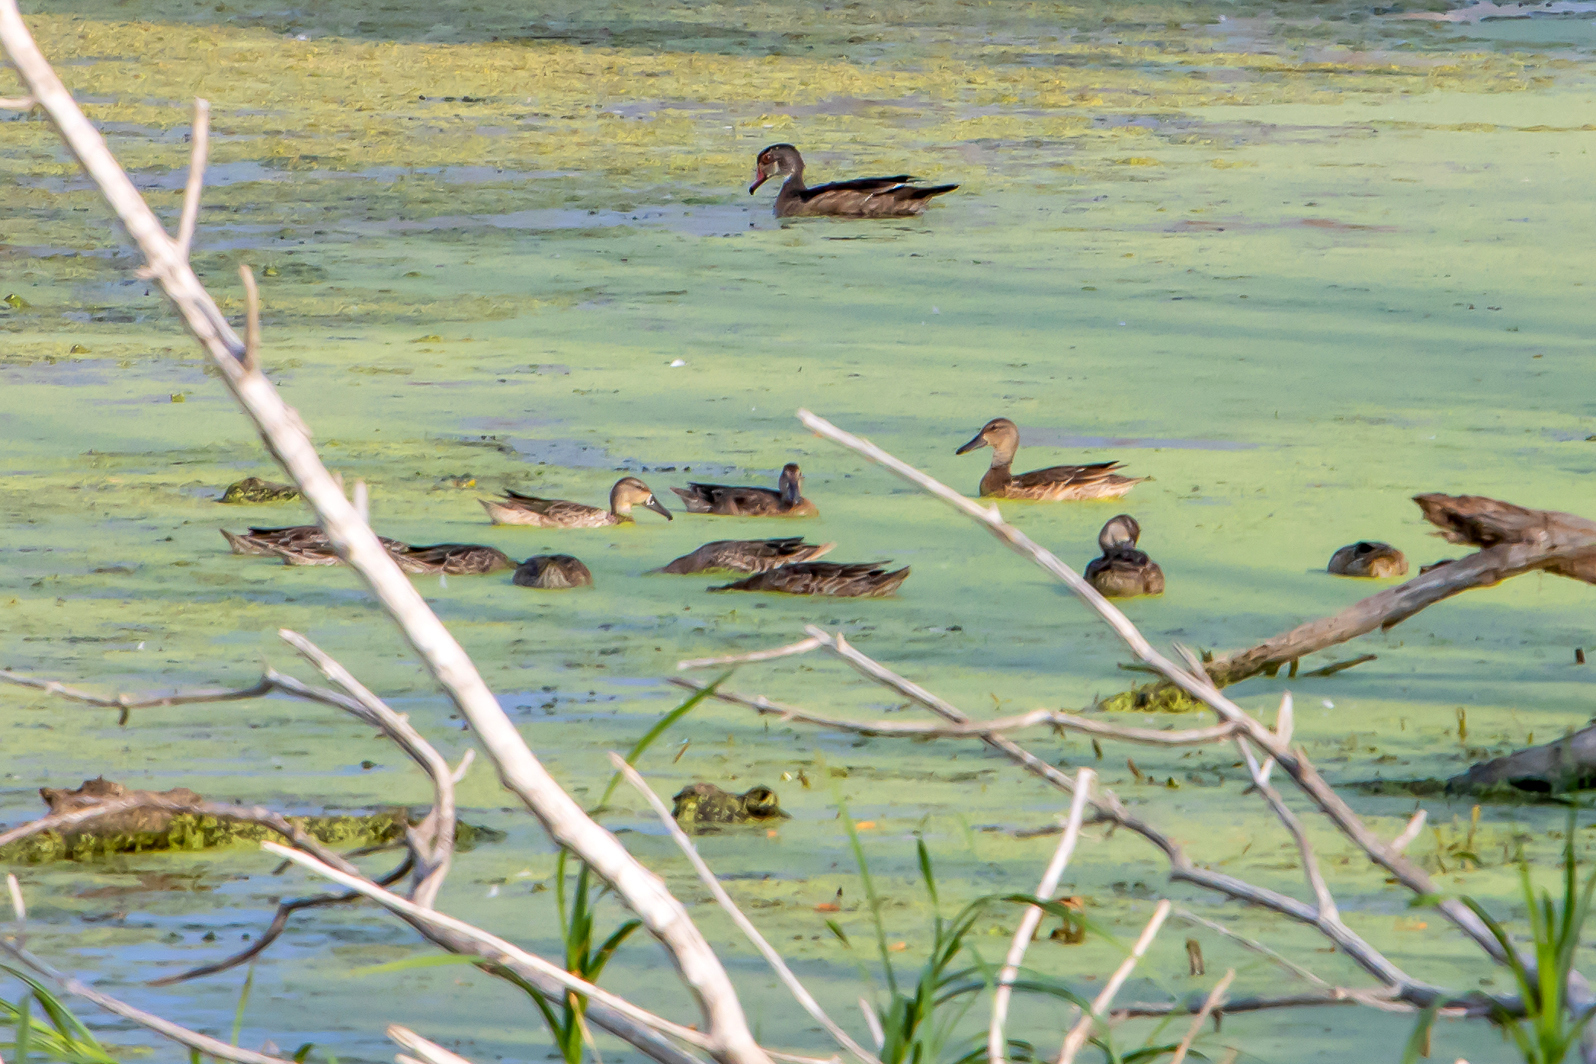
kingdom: Animalia
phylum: Chordata
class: Aves
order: Anseriformes
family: Anatidae
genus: Anas
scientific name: Anas crecca
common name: Eurasian teal
